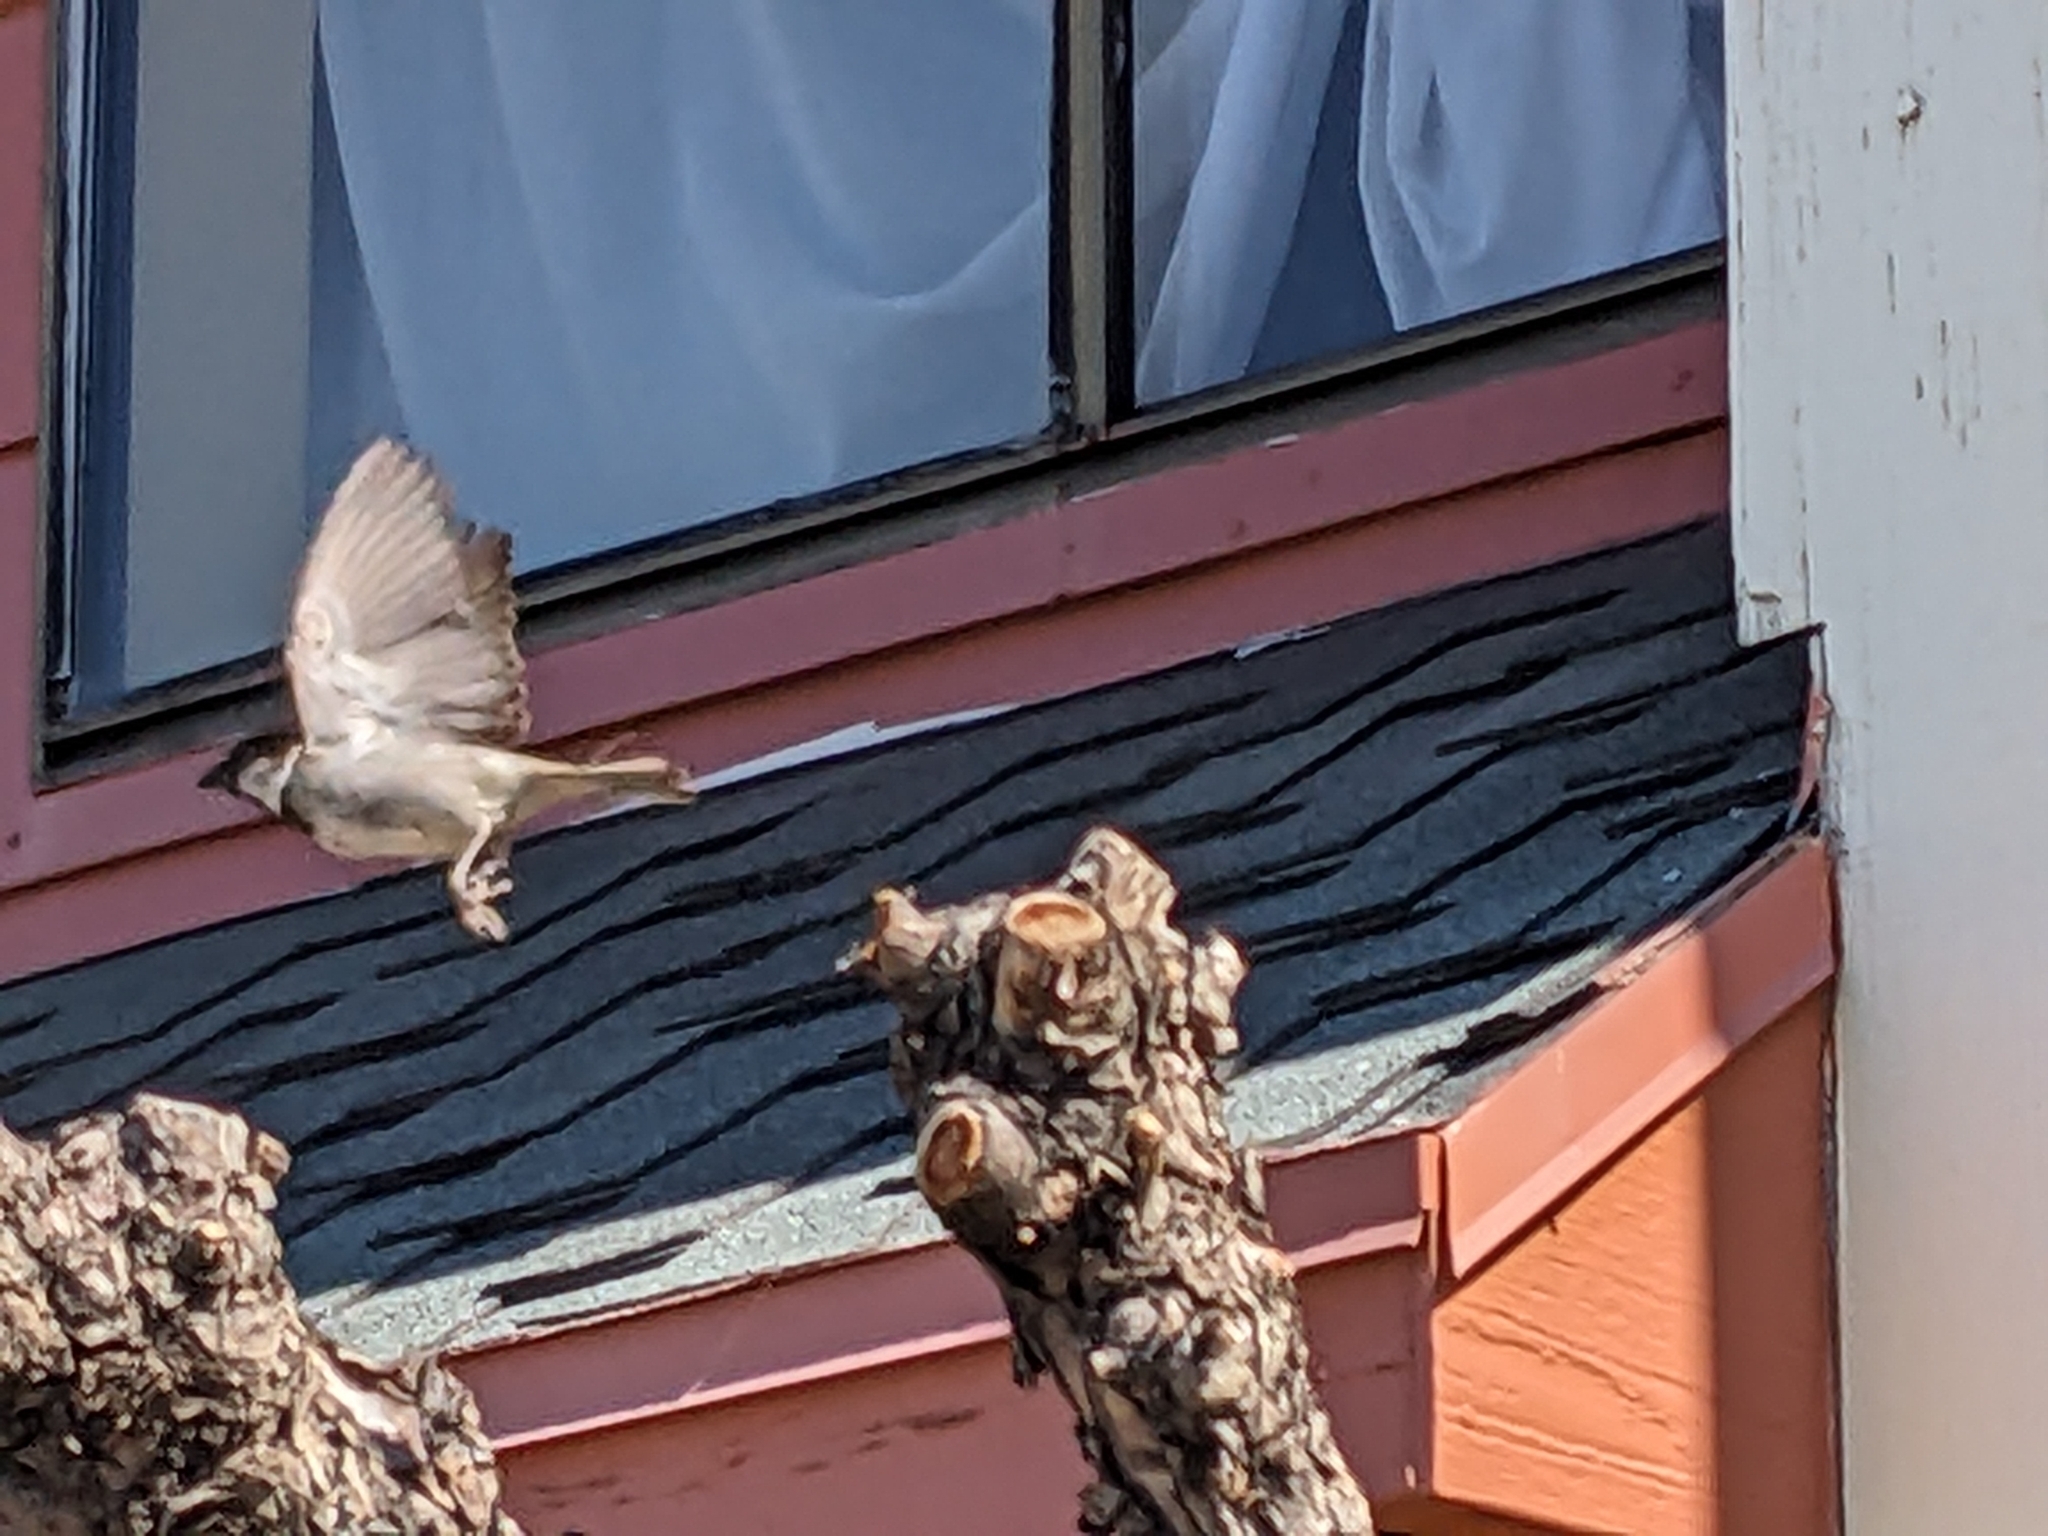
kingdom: Animalia
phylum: Chordata
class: Aves
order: Passeriformes
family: Passeridae
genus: Passer
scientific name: Passer domesticus
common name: House sparrow
